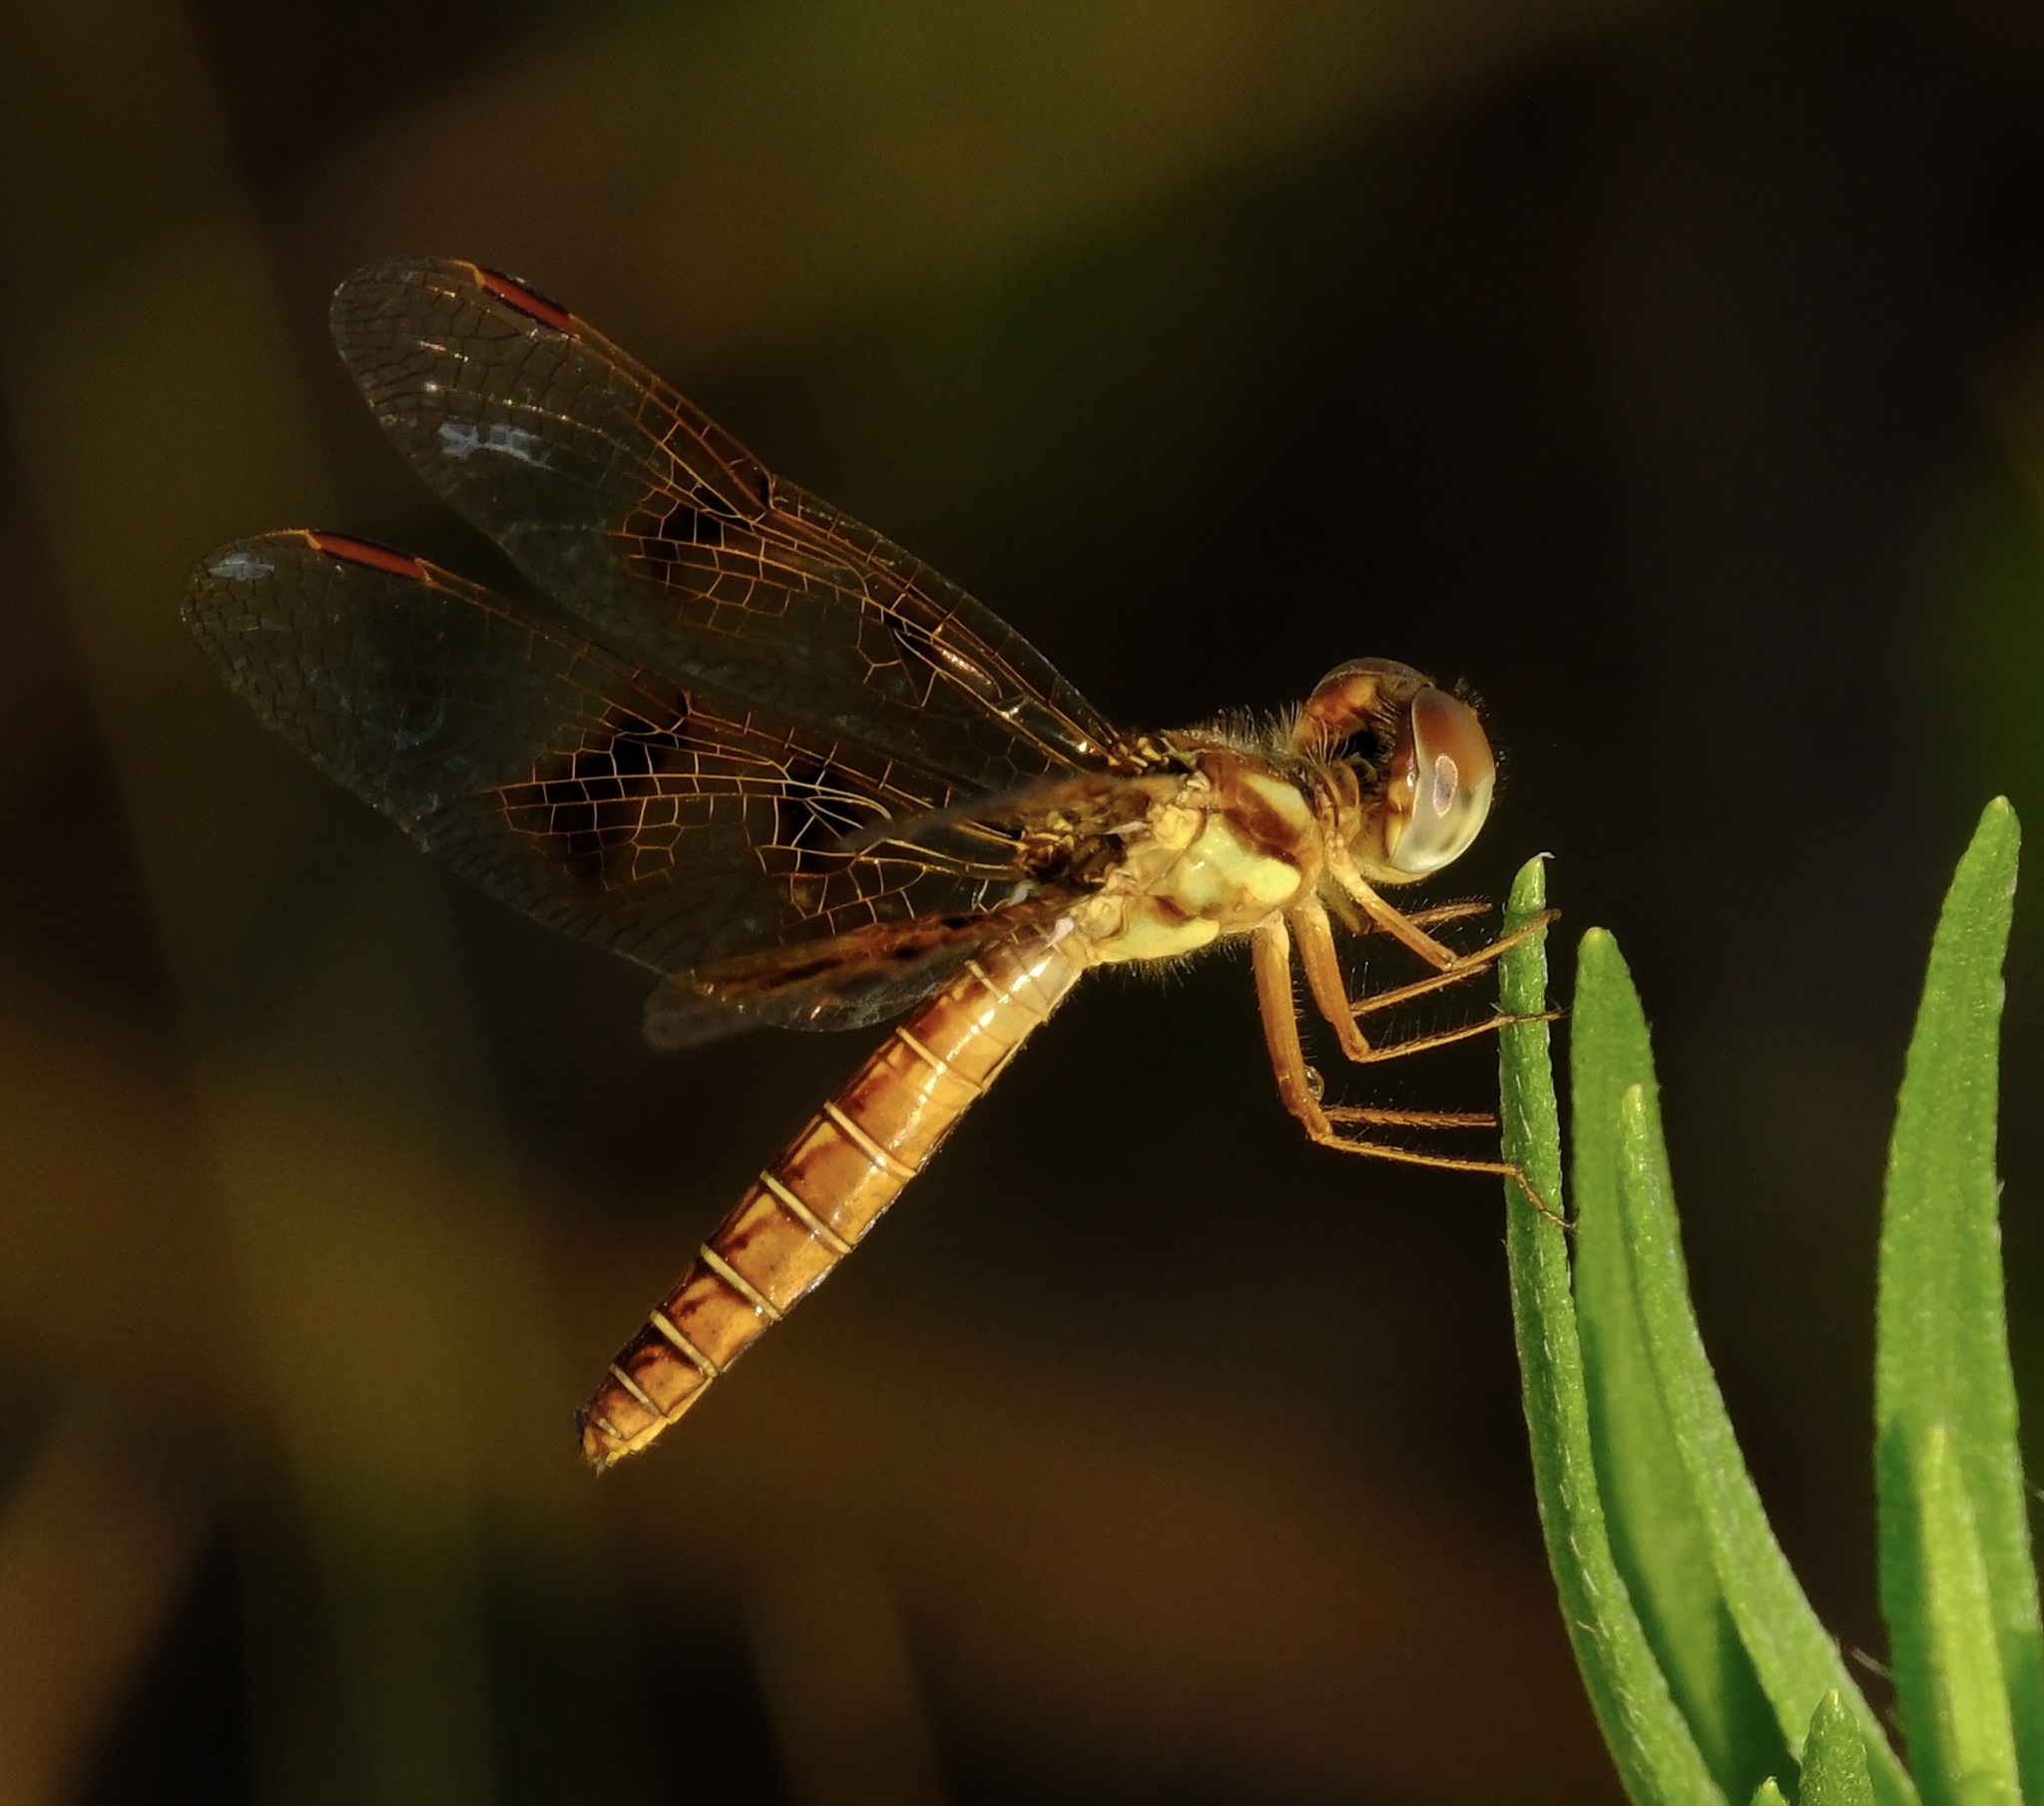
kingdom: Animalia
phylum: Arthropoda
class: Insecta
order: Odonata
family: Libellulidae
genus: Perithemis
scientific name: Perithemis tenera
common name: Eastern amberwing
